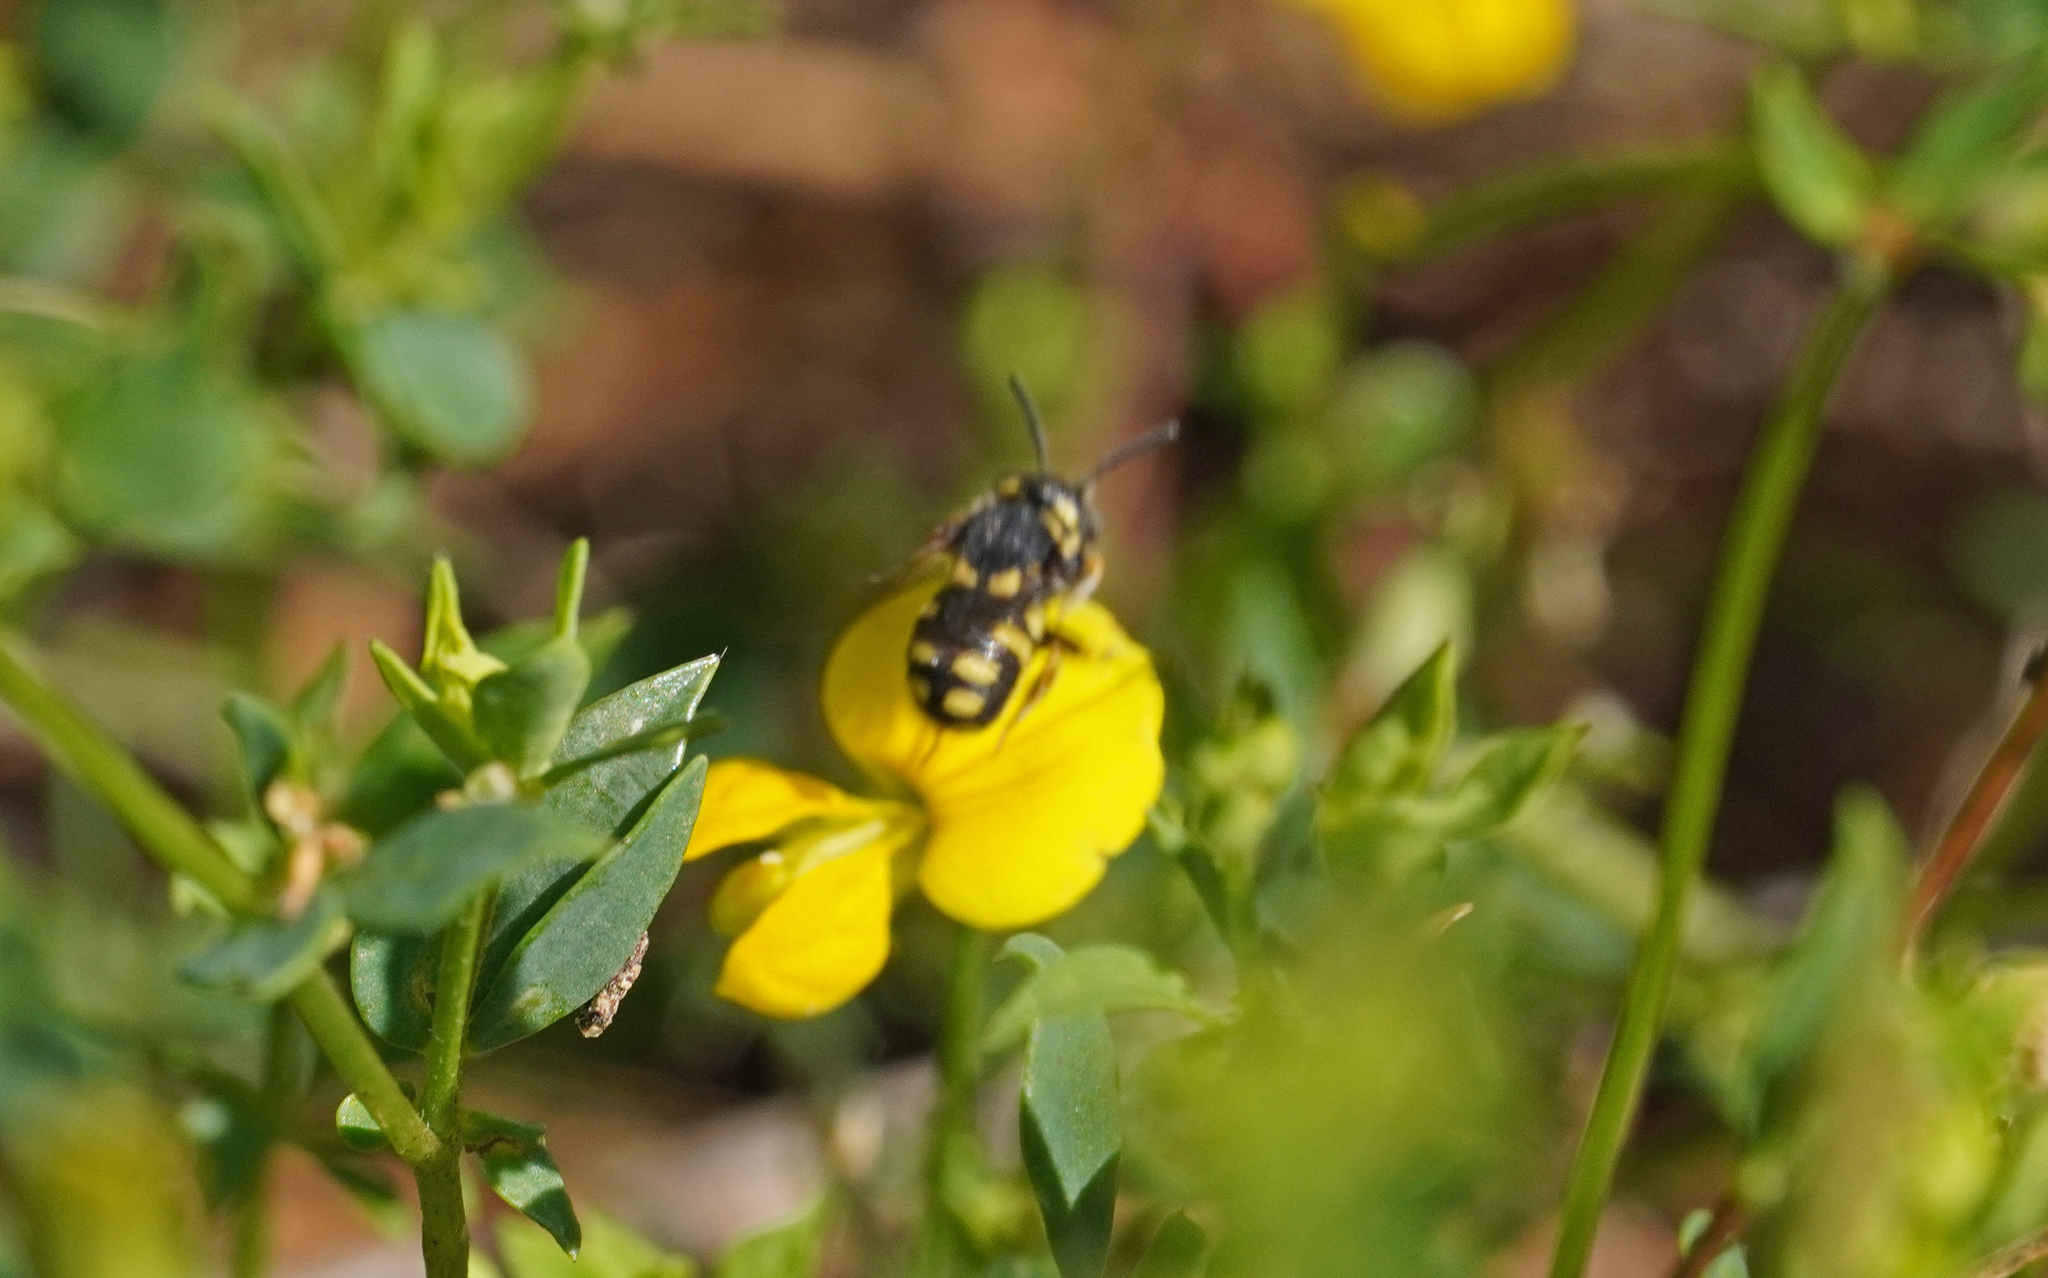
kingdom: Animalia
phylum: Arthropoda
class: Insecta
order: Hymenoptera
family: Megachilidae
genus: Anthidiellum
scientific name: Anthidiellum strigatum
